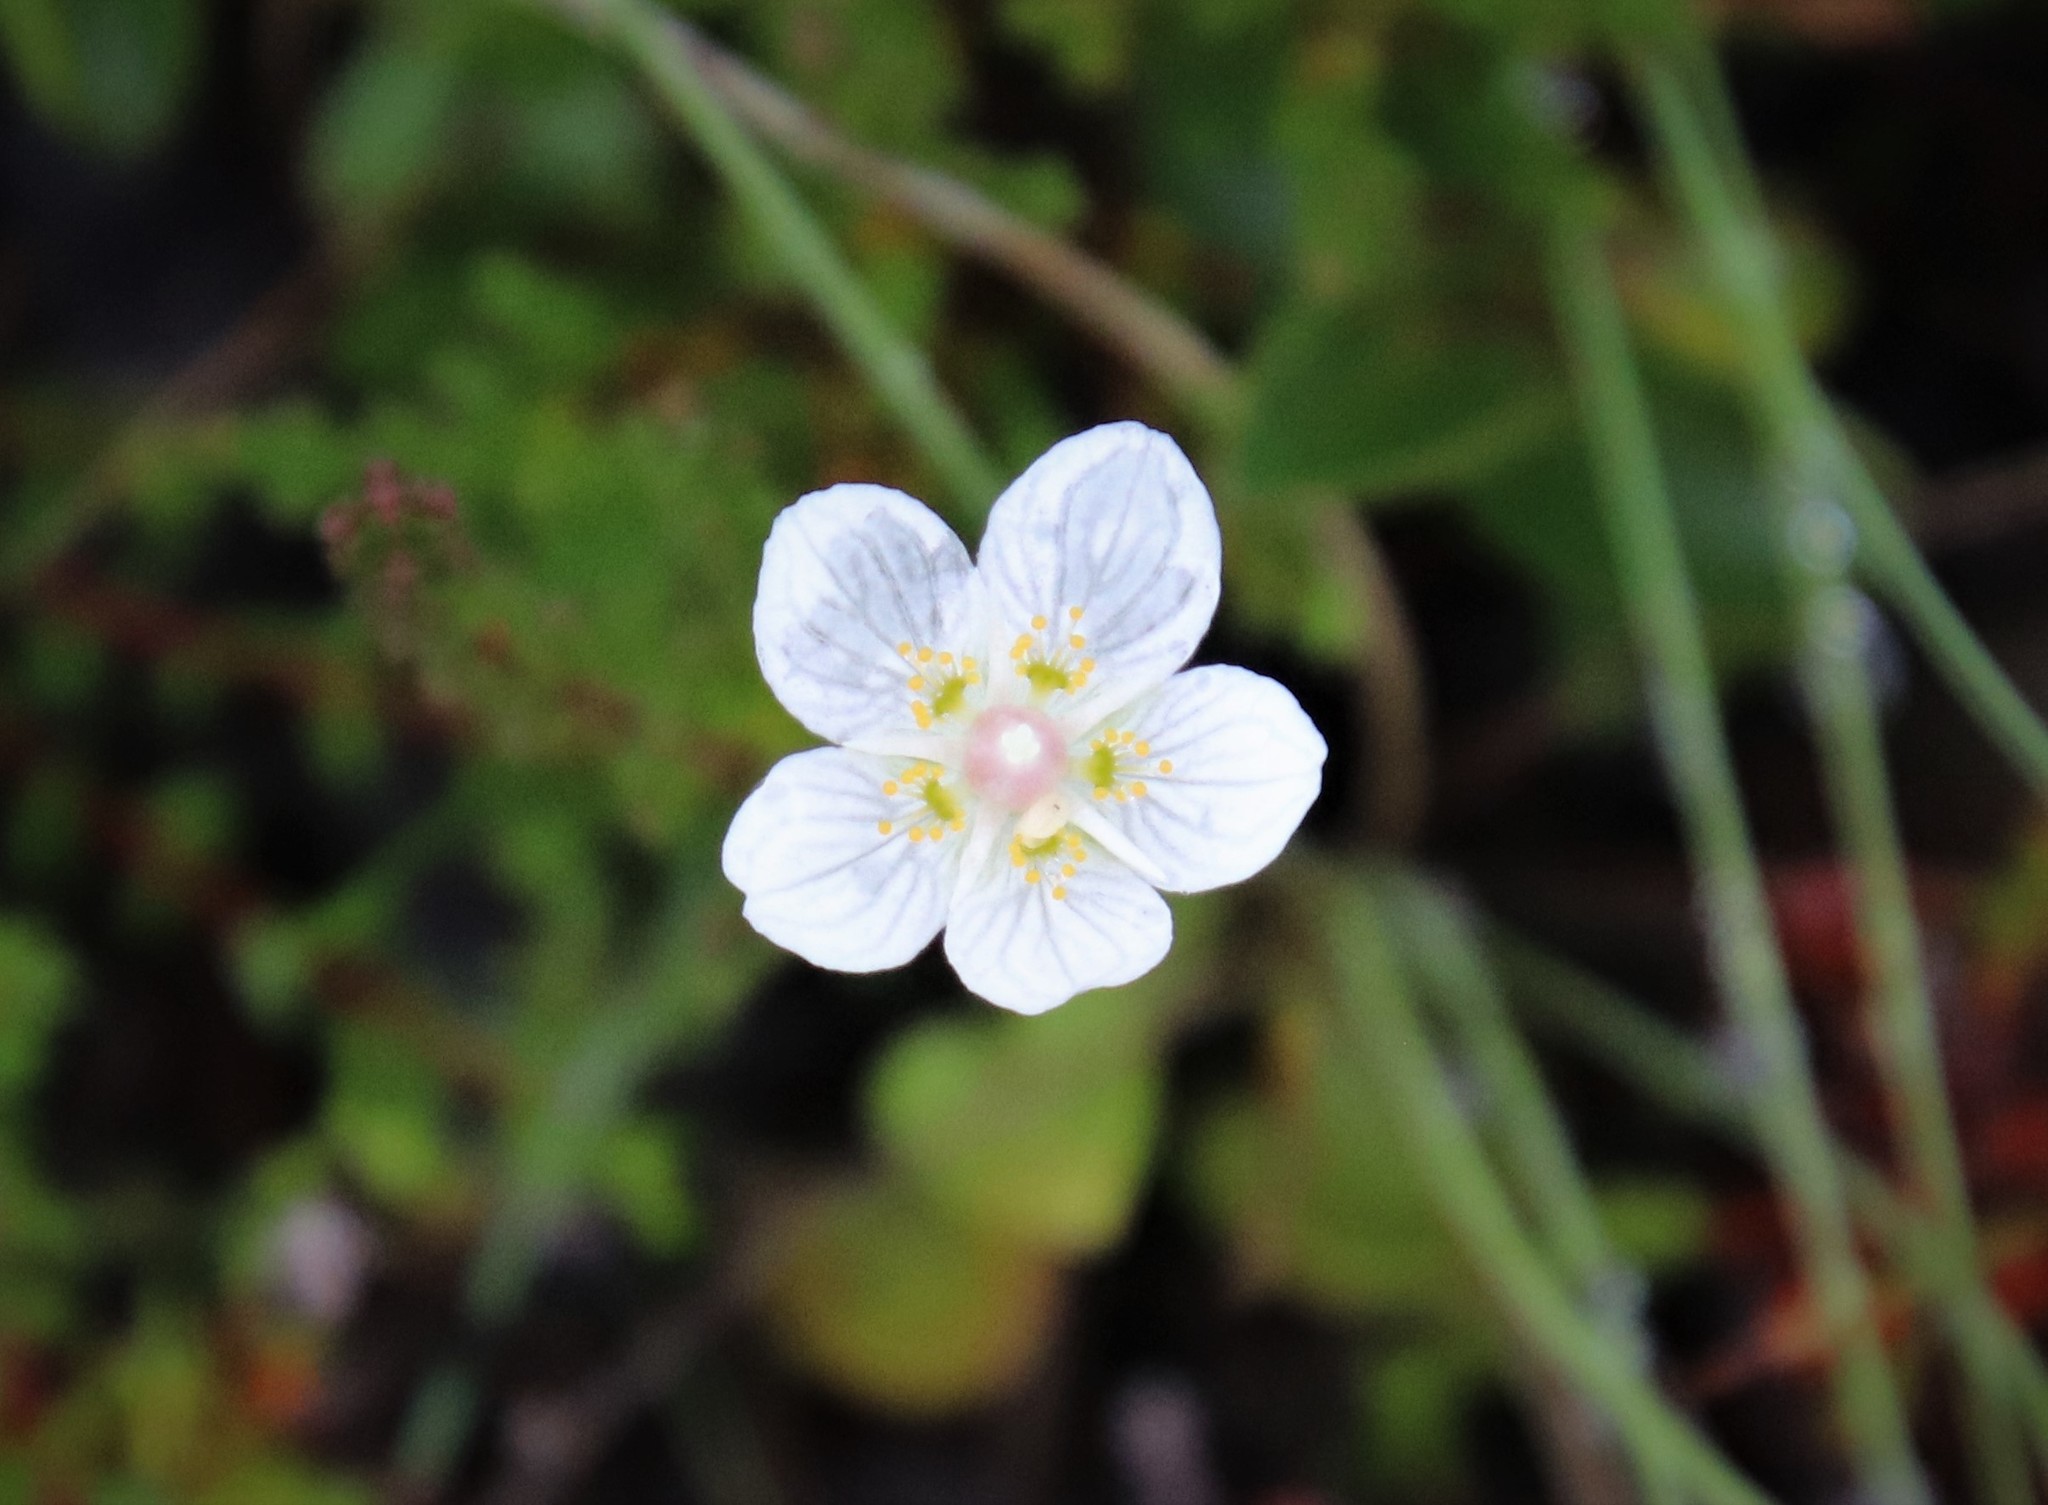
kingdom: Plantae
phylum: Tracheophyta
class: Magnoliopsida
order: Celastrales
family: Parnassiaceae
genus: Parnassia
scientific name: Parnassia palustris
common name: Grass-of-parnassus
